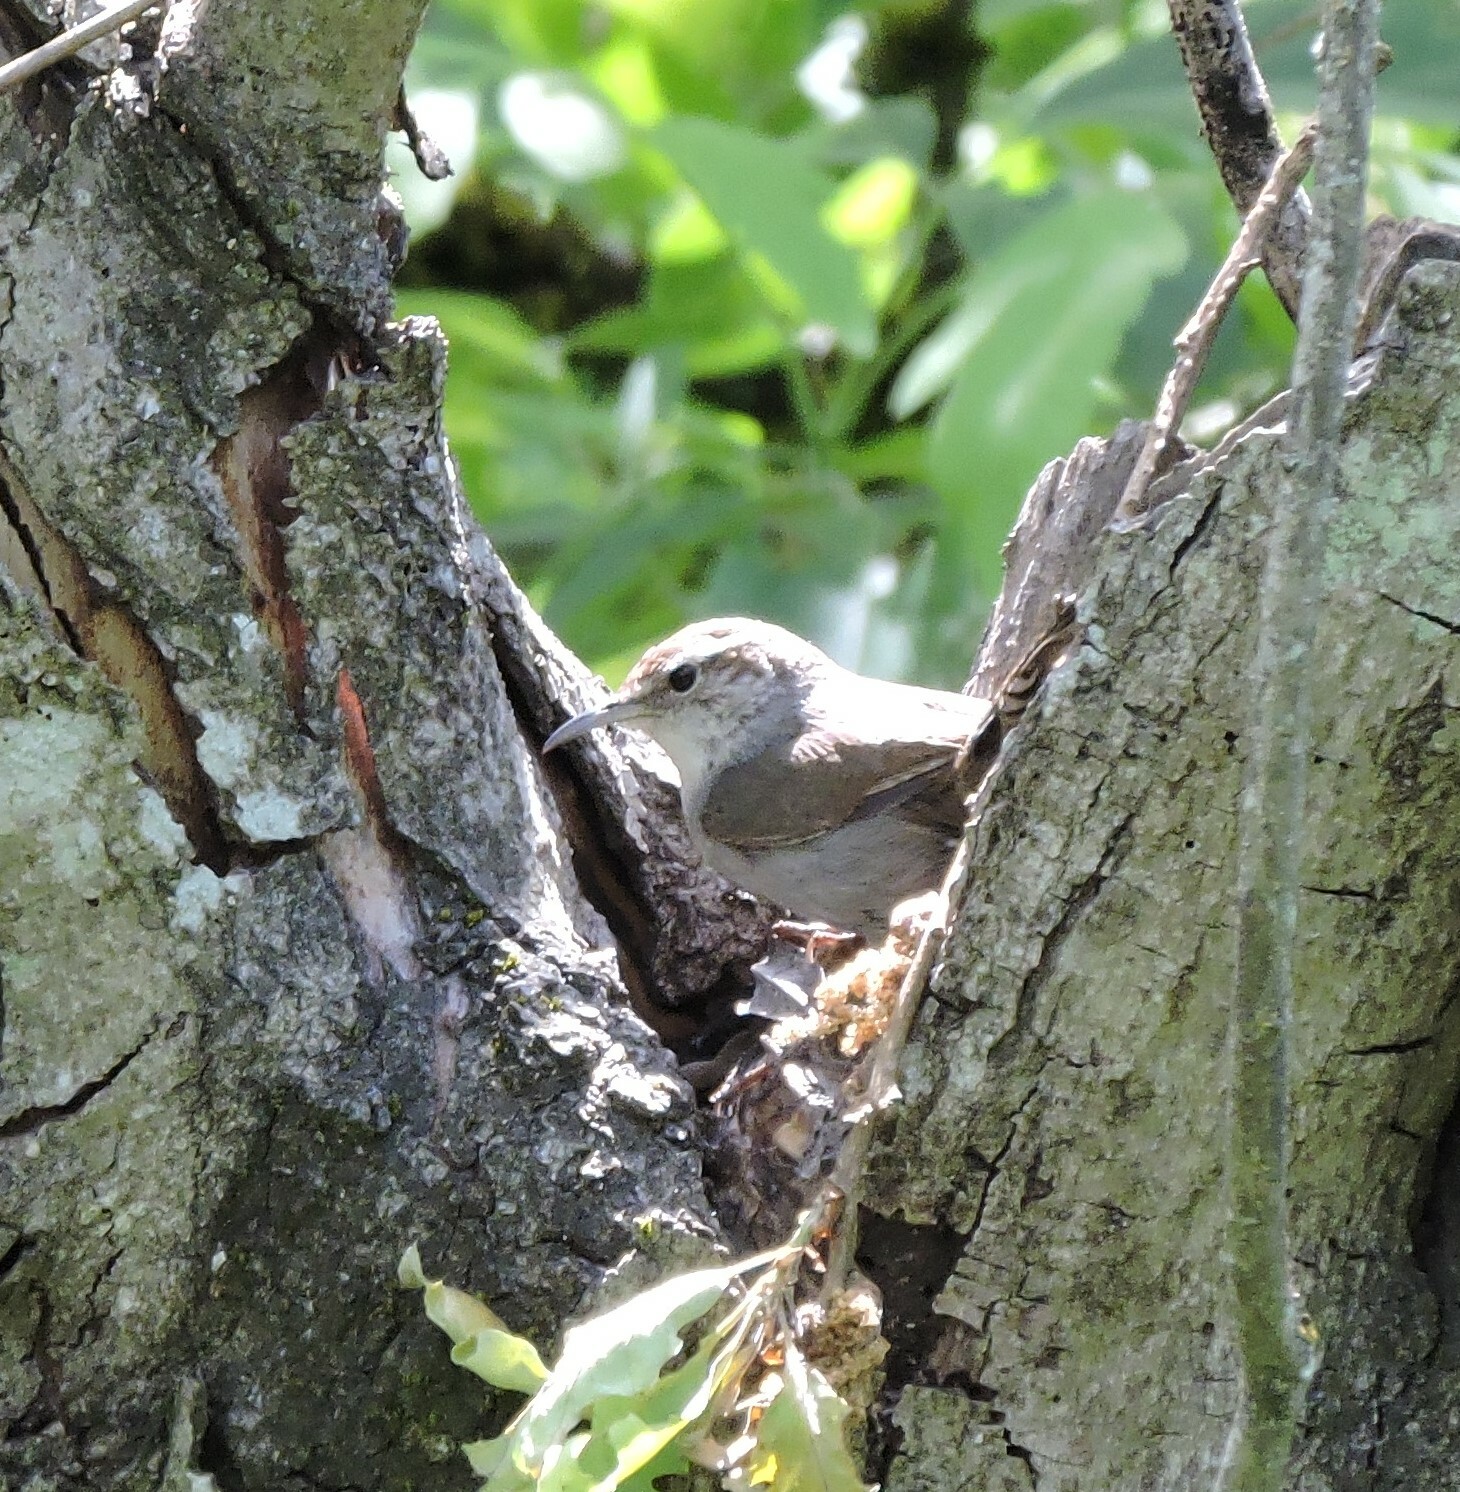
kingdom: Animalia
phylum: Chordata
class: Aves
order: Passeriformes
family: Troglodytidae
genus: Thryomanes
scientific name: Thryomanes bewickii
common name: Bewick's wren
